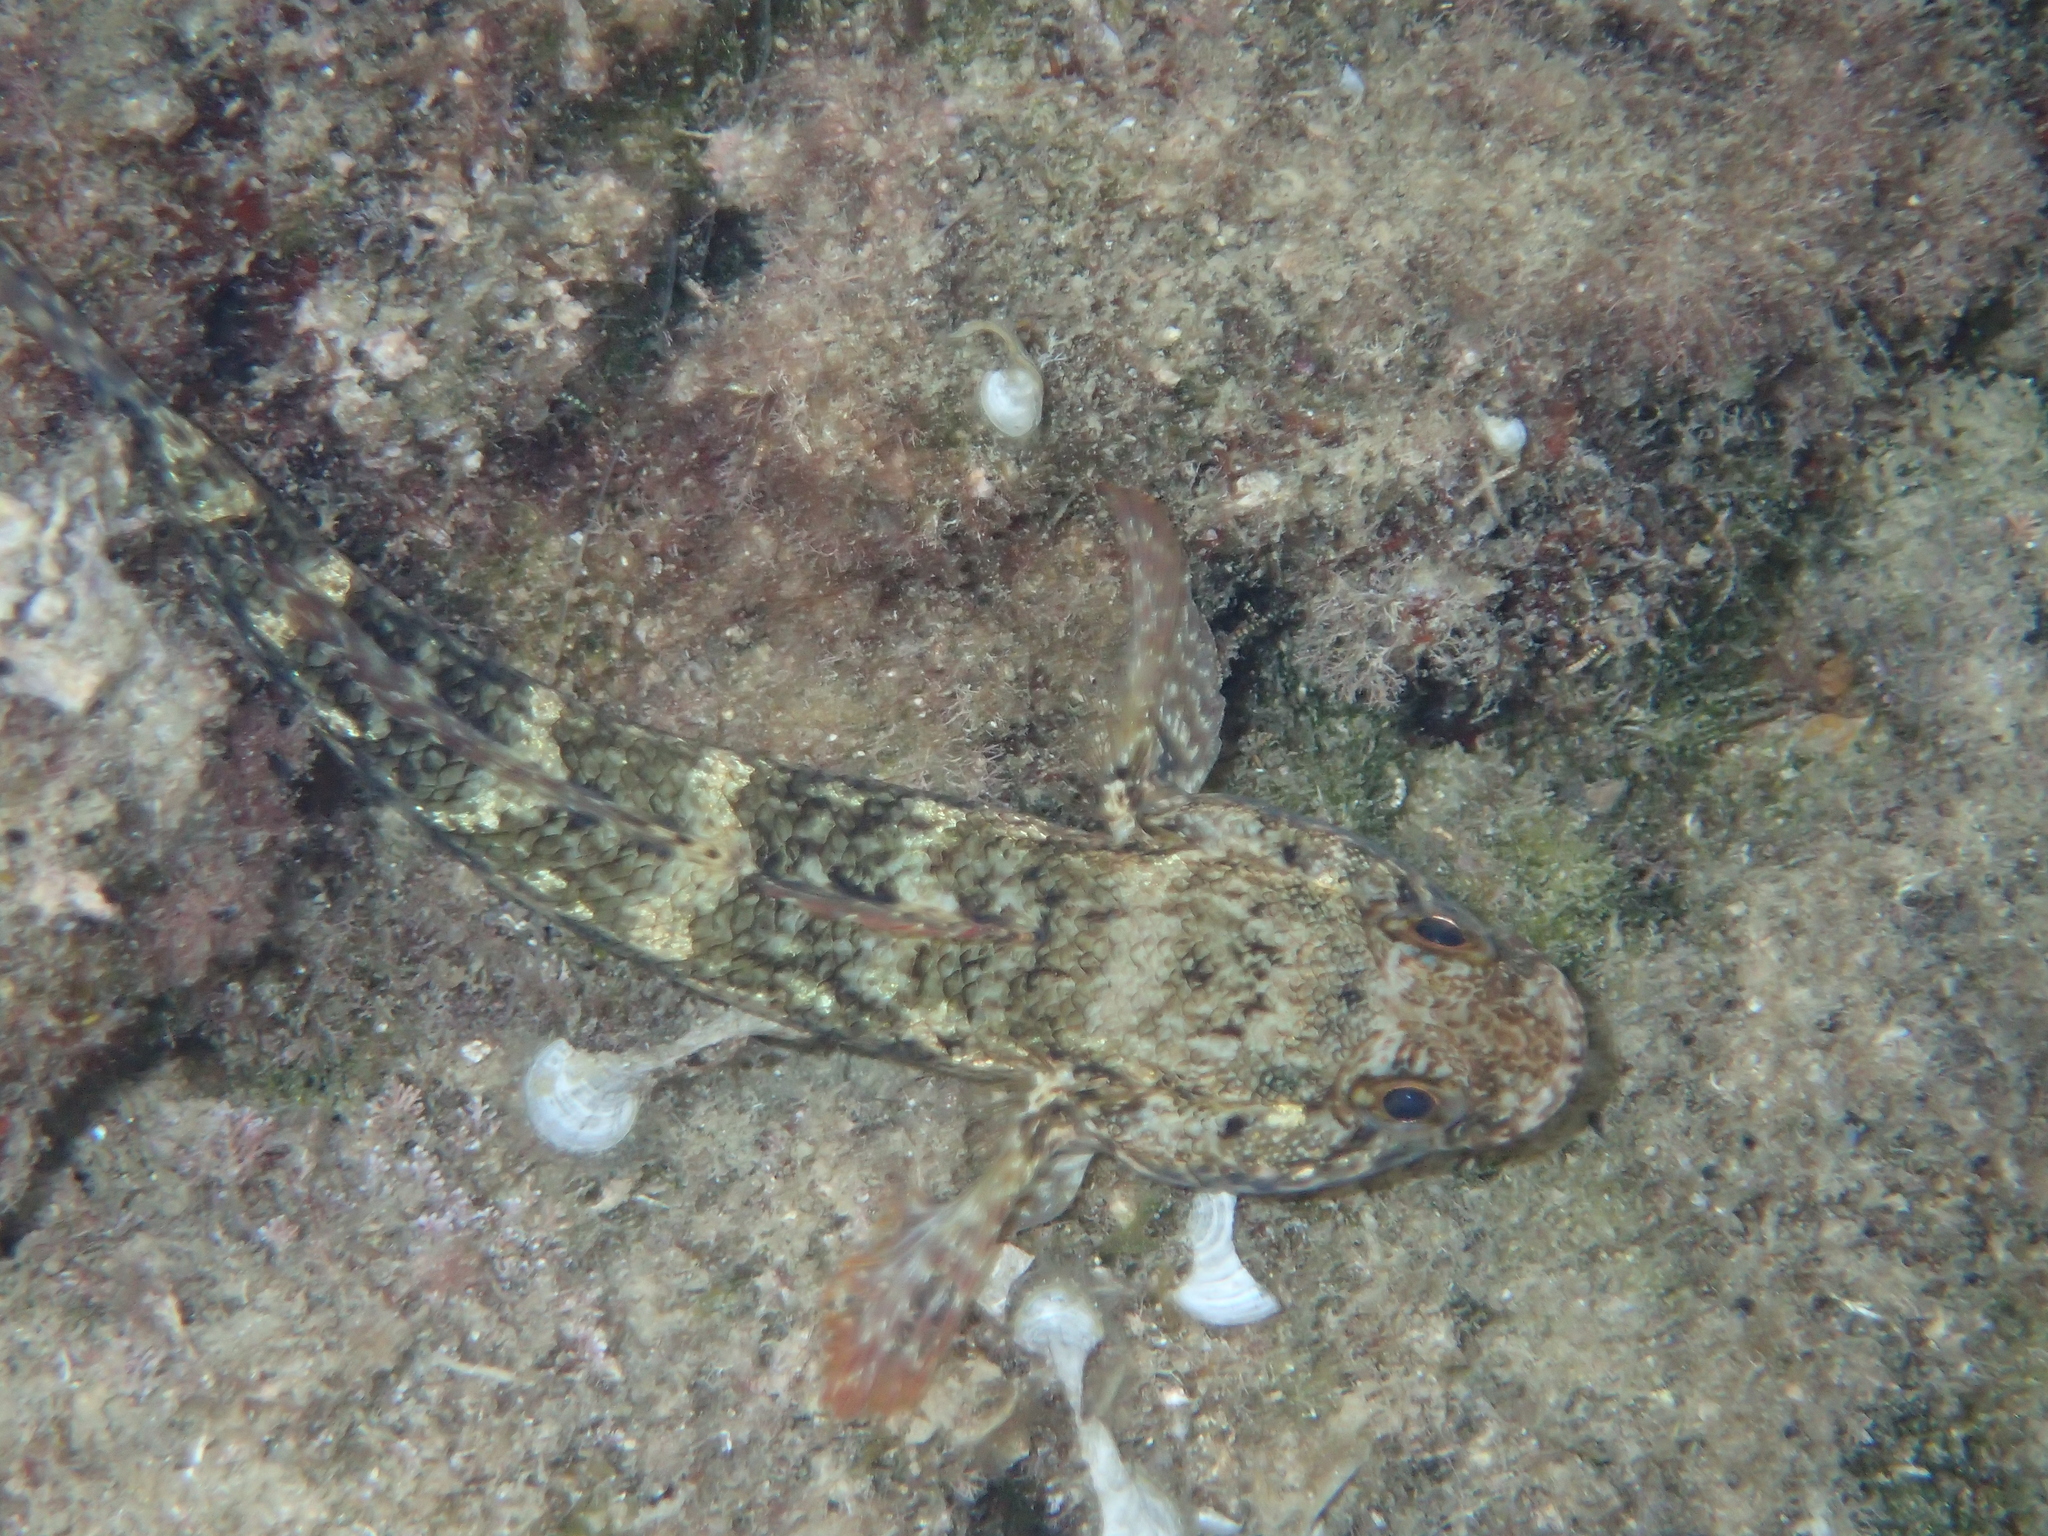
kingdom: Animalia
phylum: Chordata
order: Perciformes
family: Gobiidae
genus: Gobius
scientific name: Gobius paganellus
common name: Rock goby
